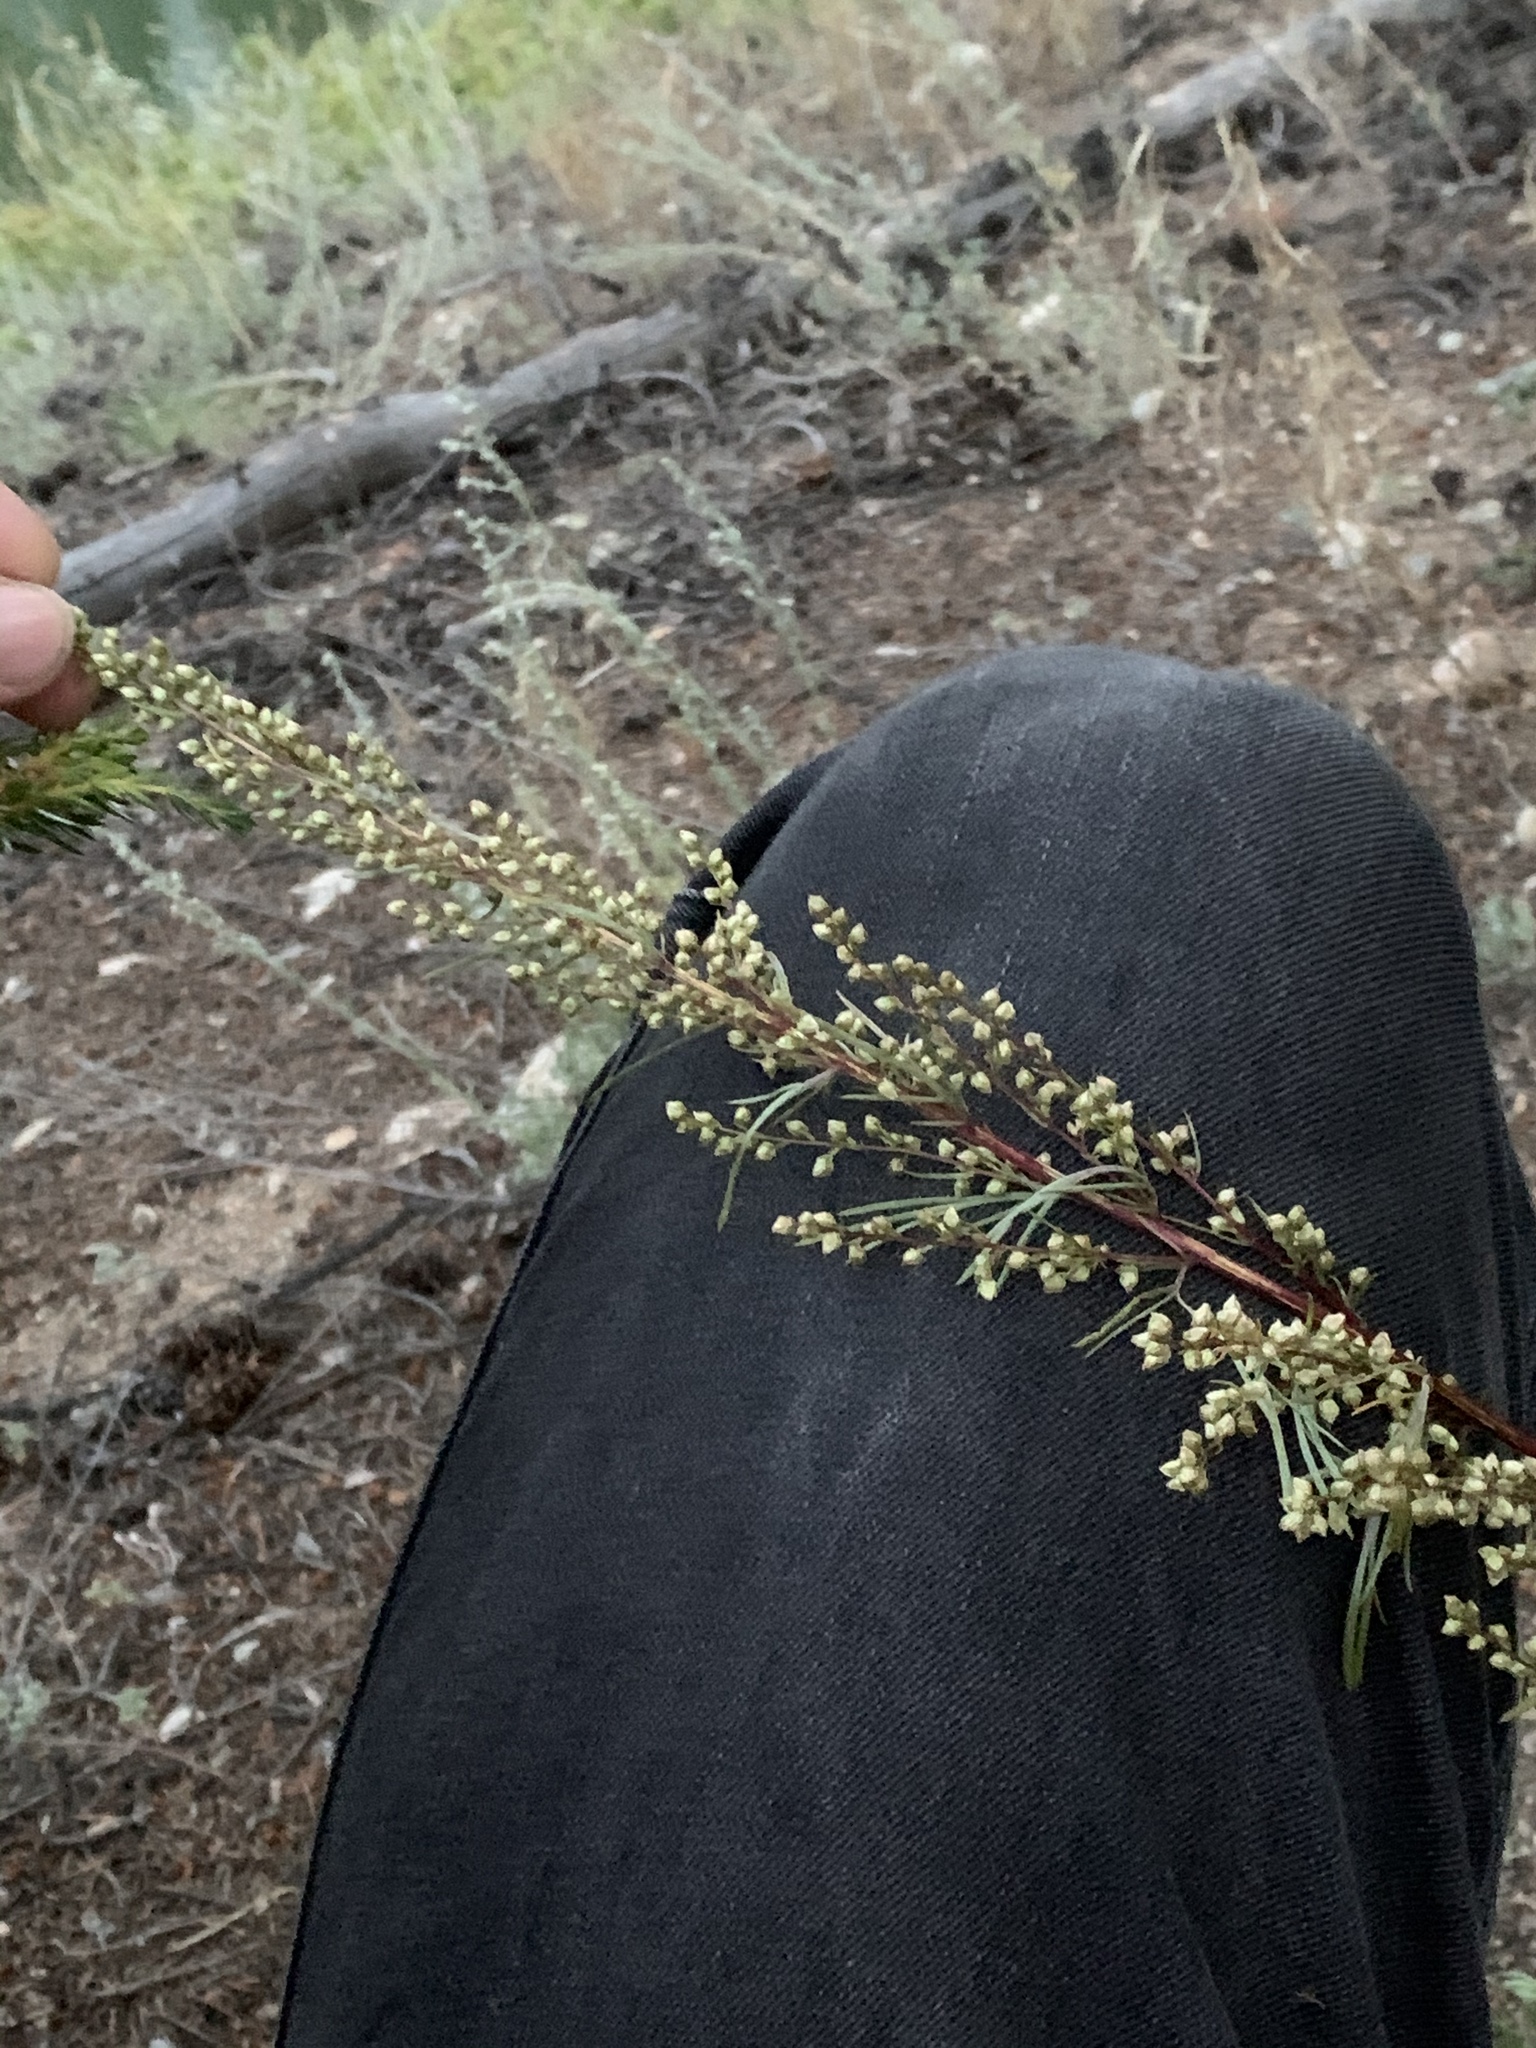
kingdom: Plantae
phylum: Tracheophyta
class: Magnoliopsida
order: Asterales
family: Asteraceae
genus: Artemisia
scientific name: Artemisia campestris
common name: Field wormwood
